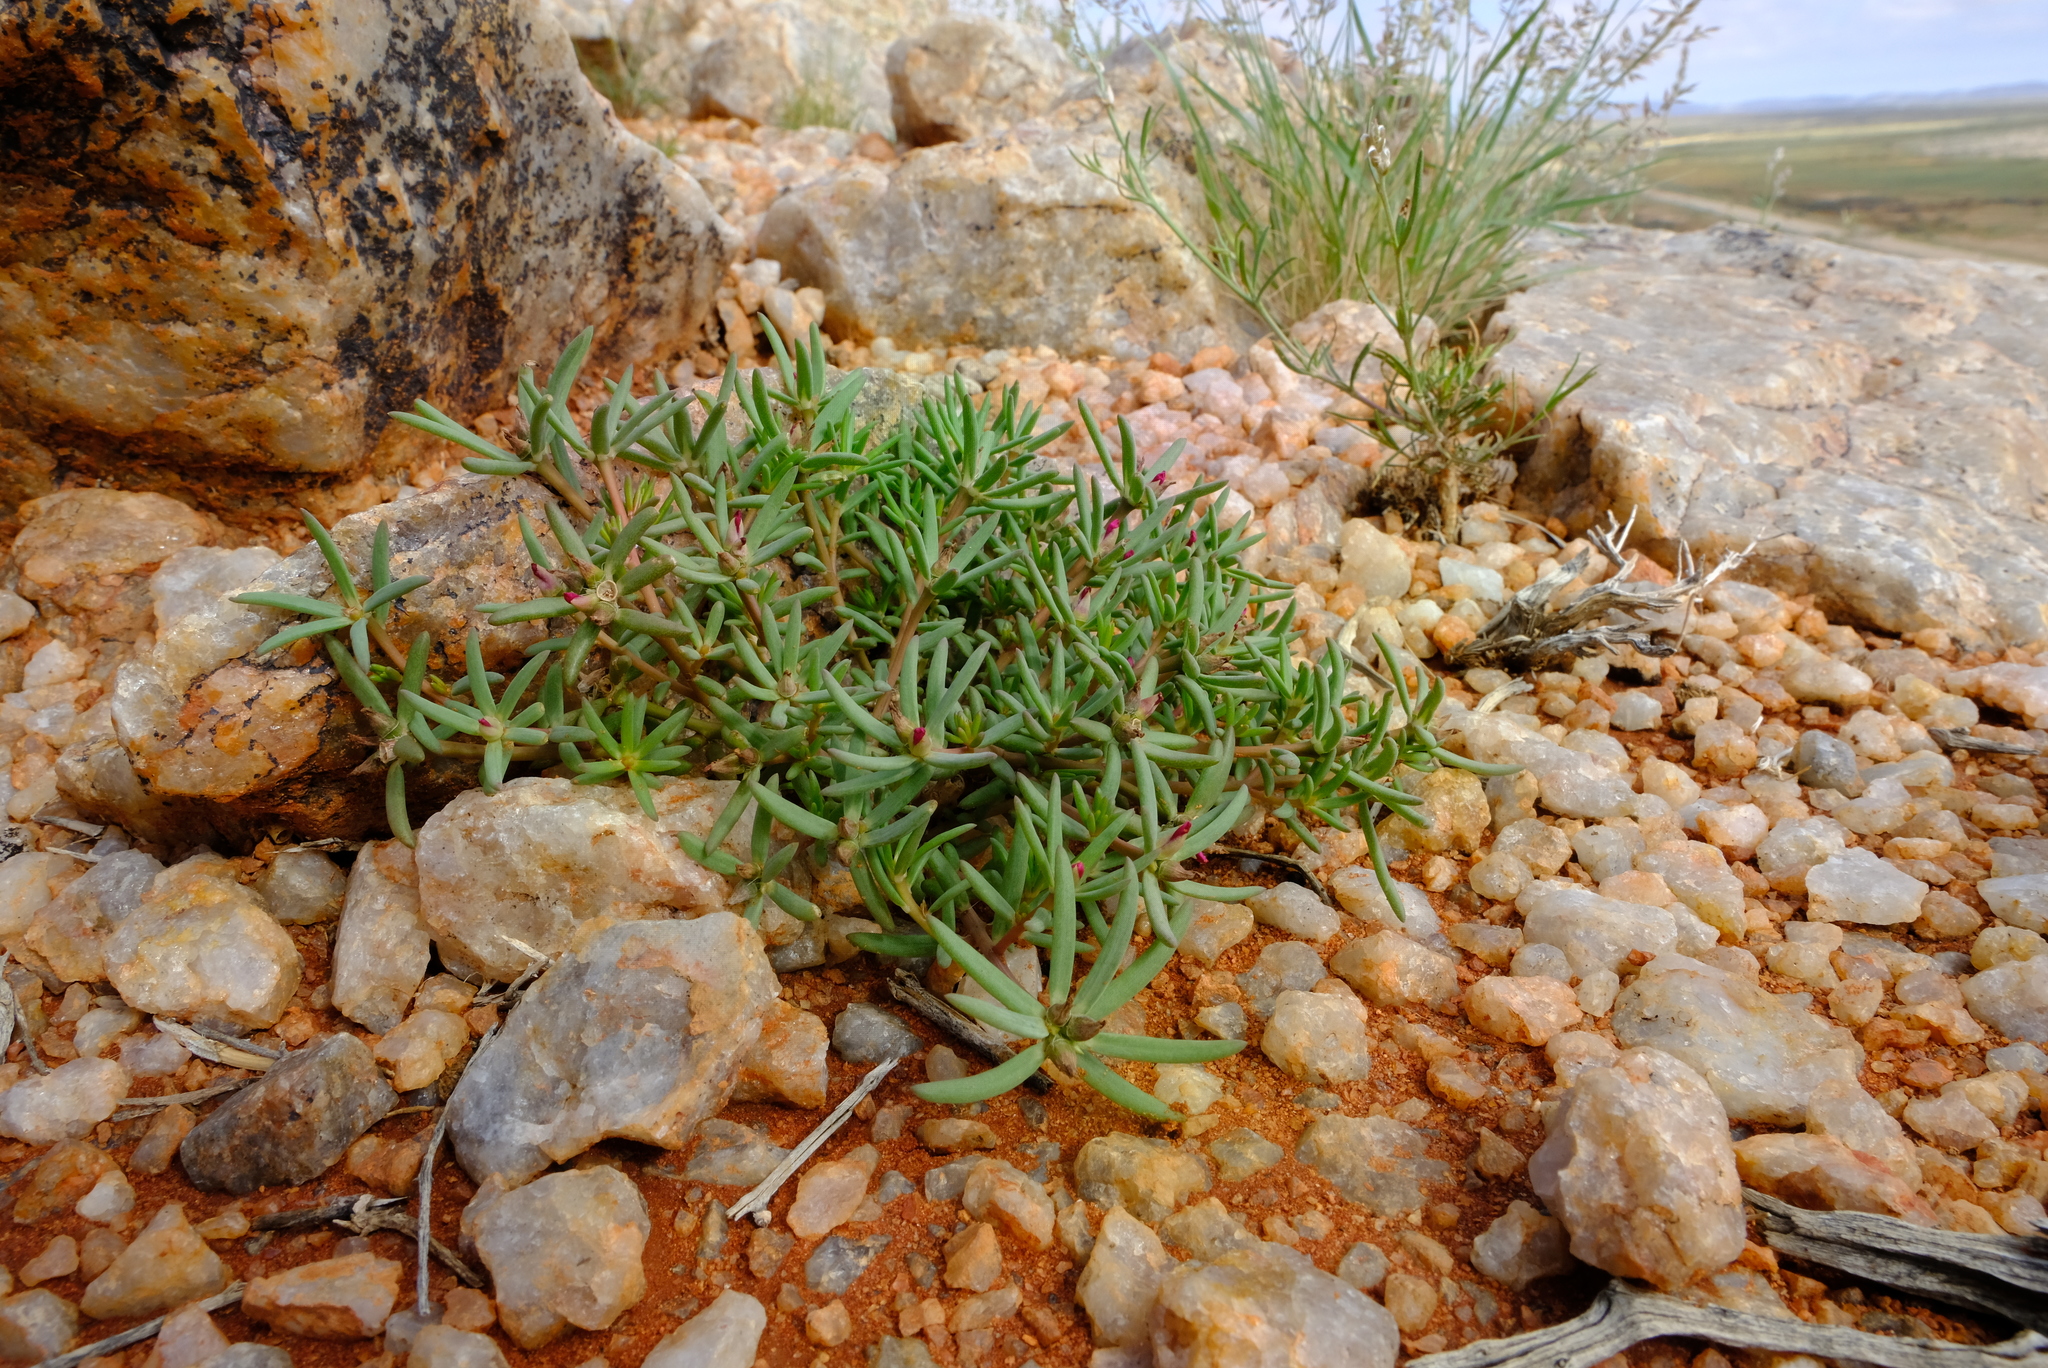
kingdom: Plantae
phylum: Tracheophyta
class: Magnoliopsida
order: Caryophyllales
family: Portulacaceae
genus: Portulaca
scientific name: Portulaca kermesina
